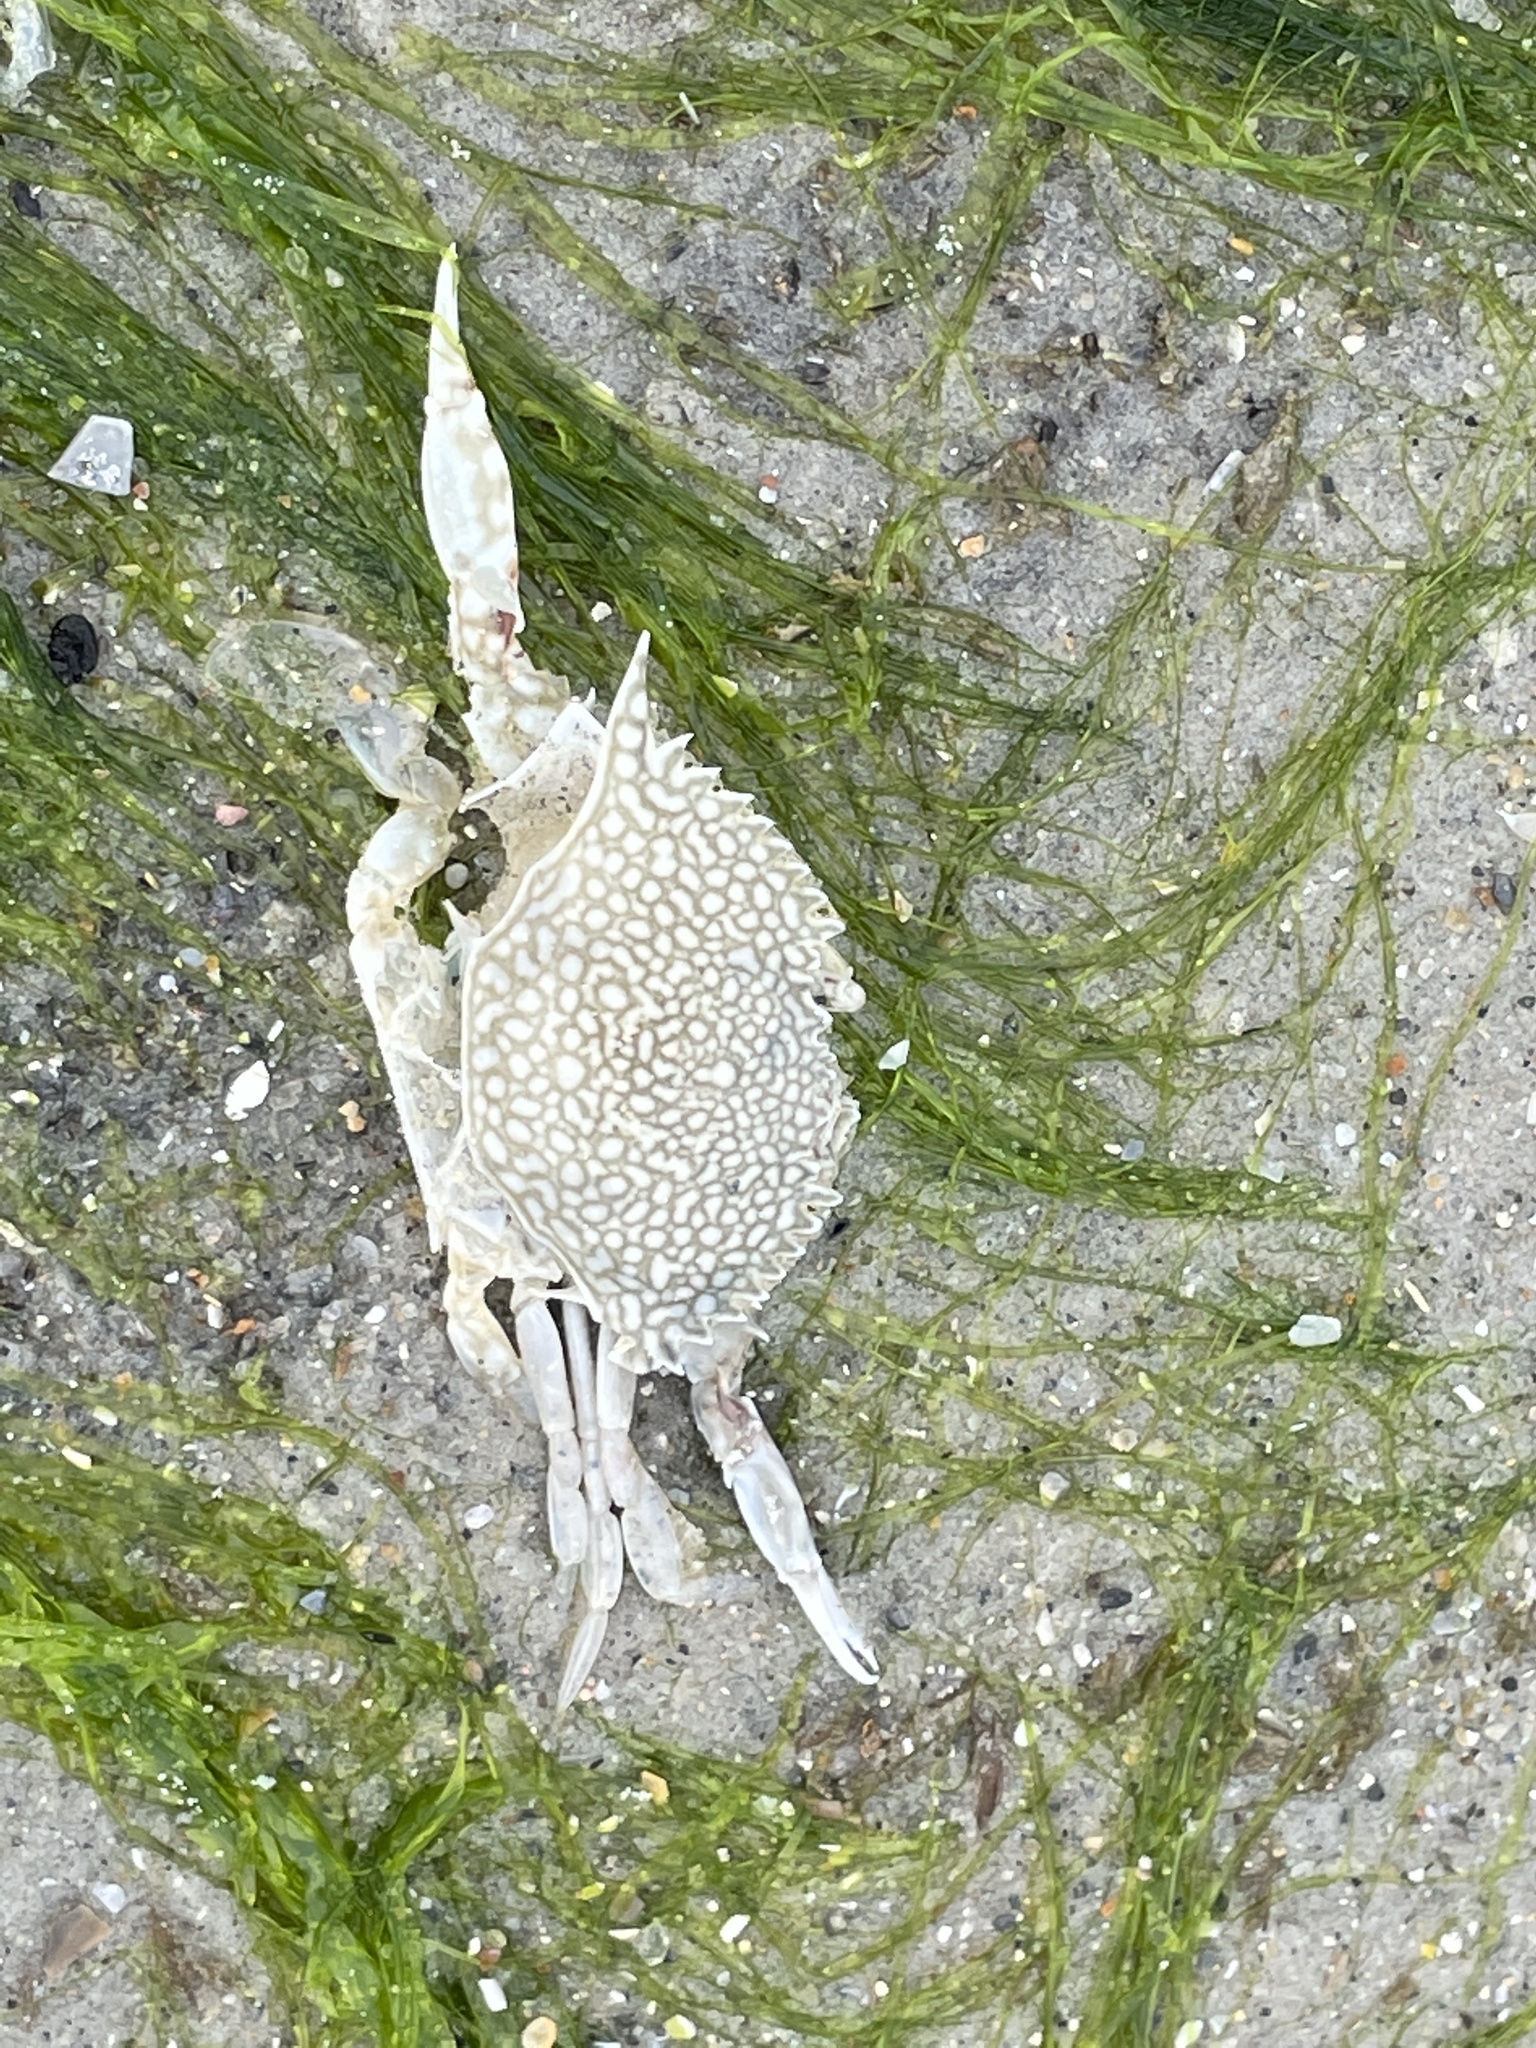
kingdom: Animalia
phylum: Arthropoda
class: Malacostraca
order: Decapoda
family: Portunidae
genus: Arenaeus
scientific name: Arenaeus cribrarius
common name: Speckled crab
